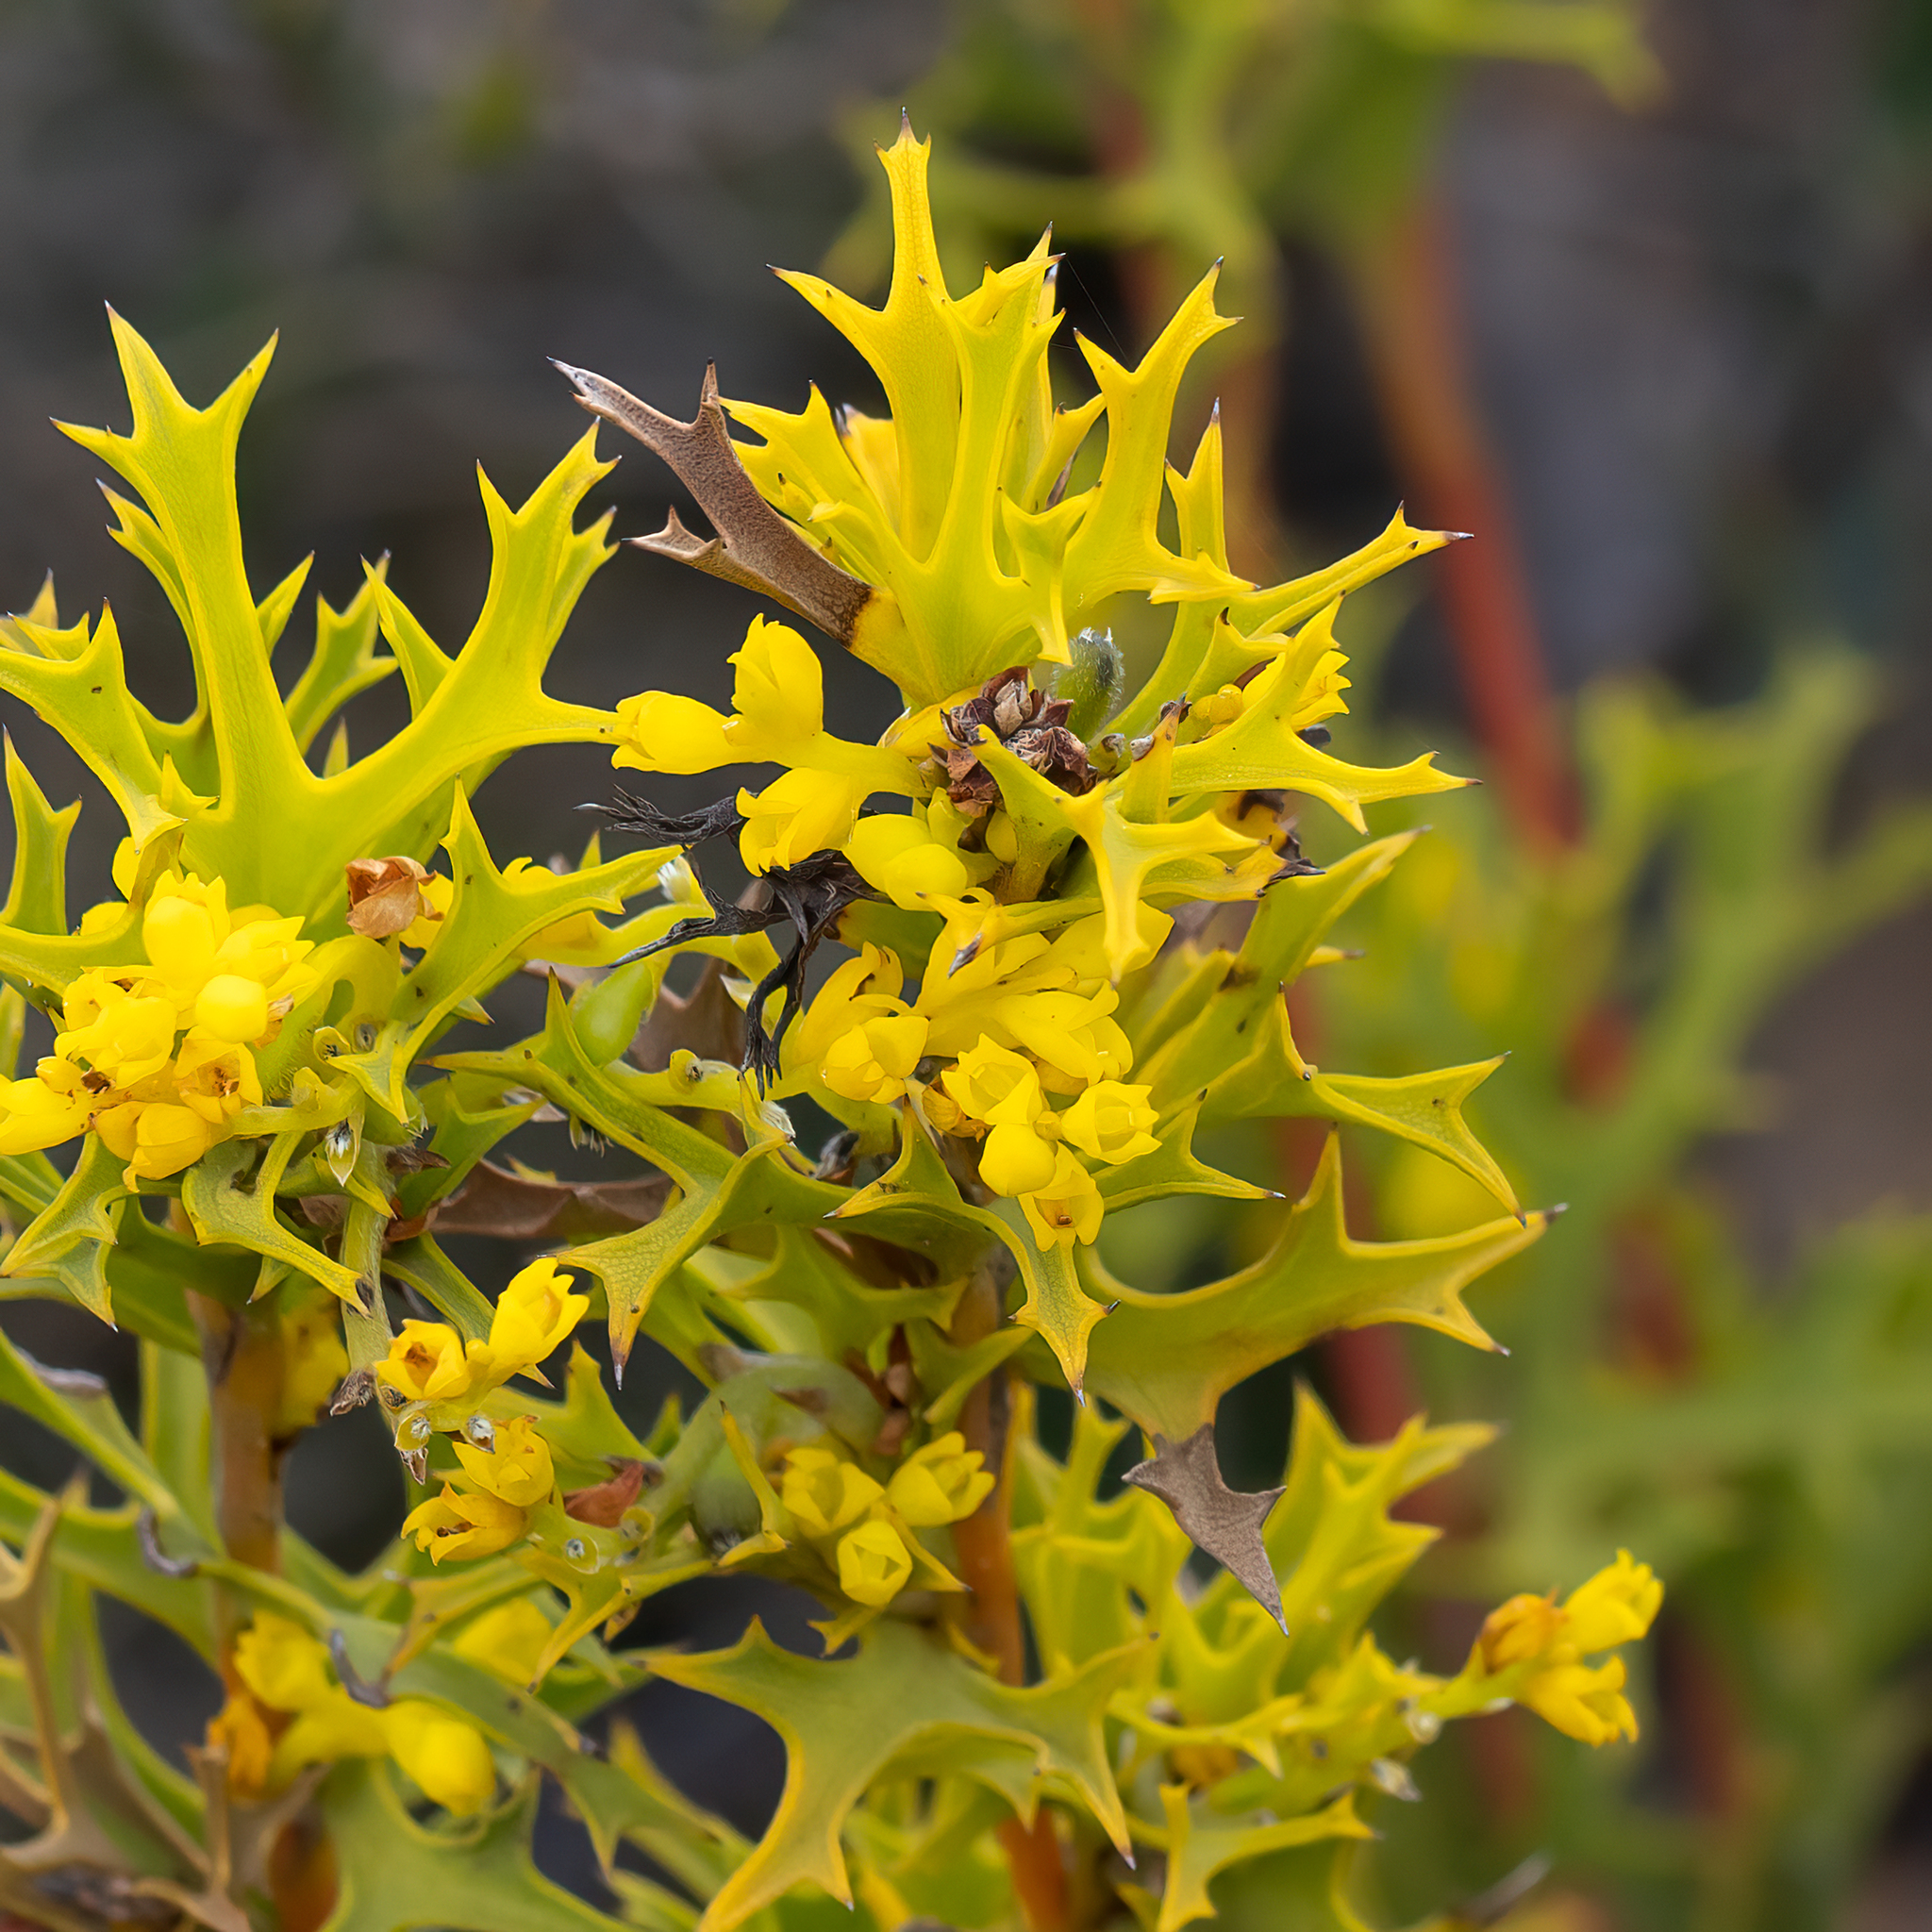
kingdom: Plantae
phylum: Tracheophyta
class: Magnoliopsida
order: Proteales
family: Proteaceae
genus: Synaphea
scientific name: Synaphea polymorpha
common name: Albany synaphea
